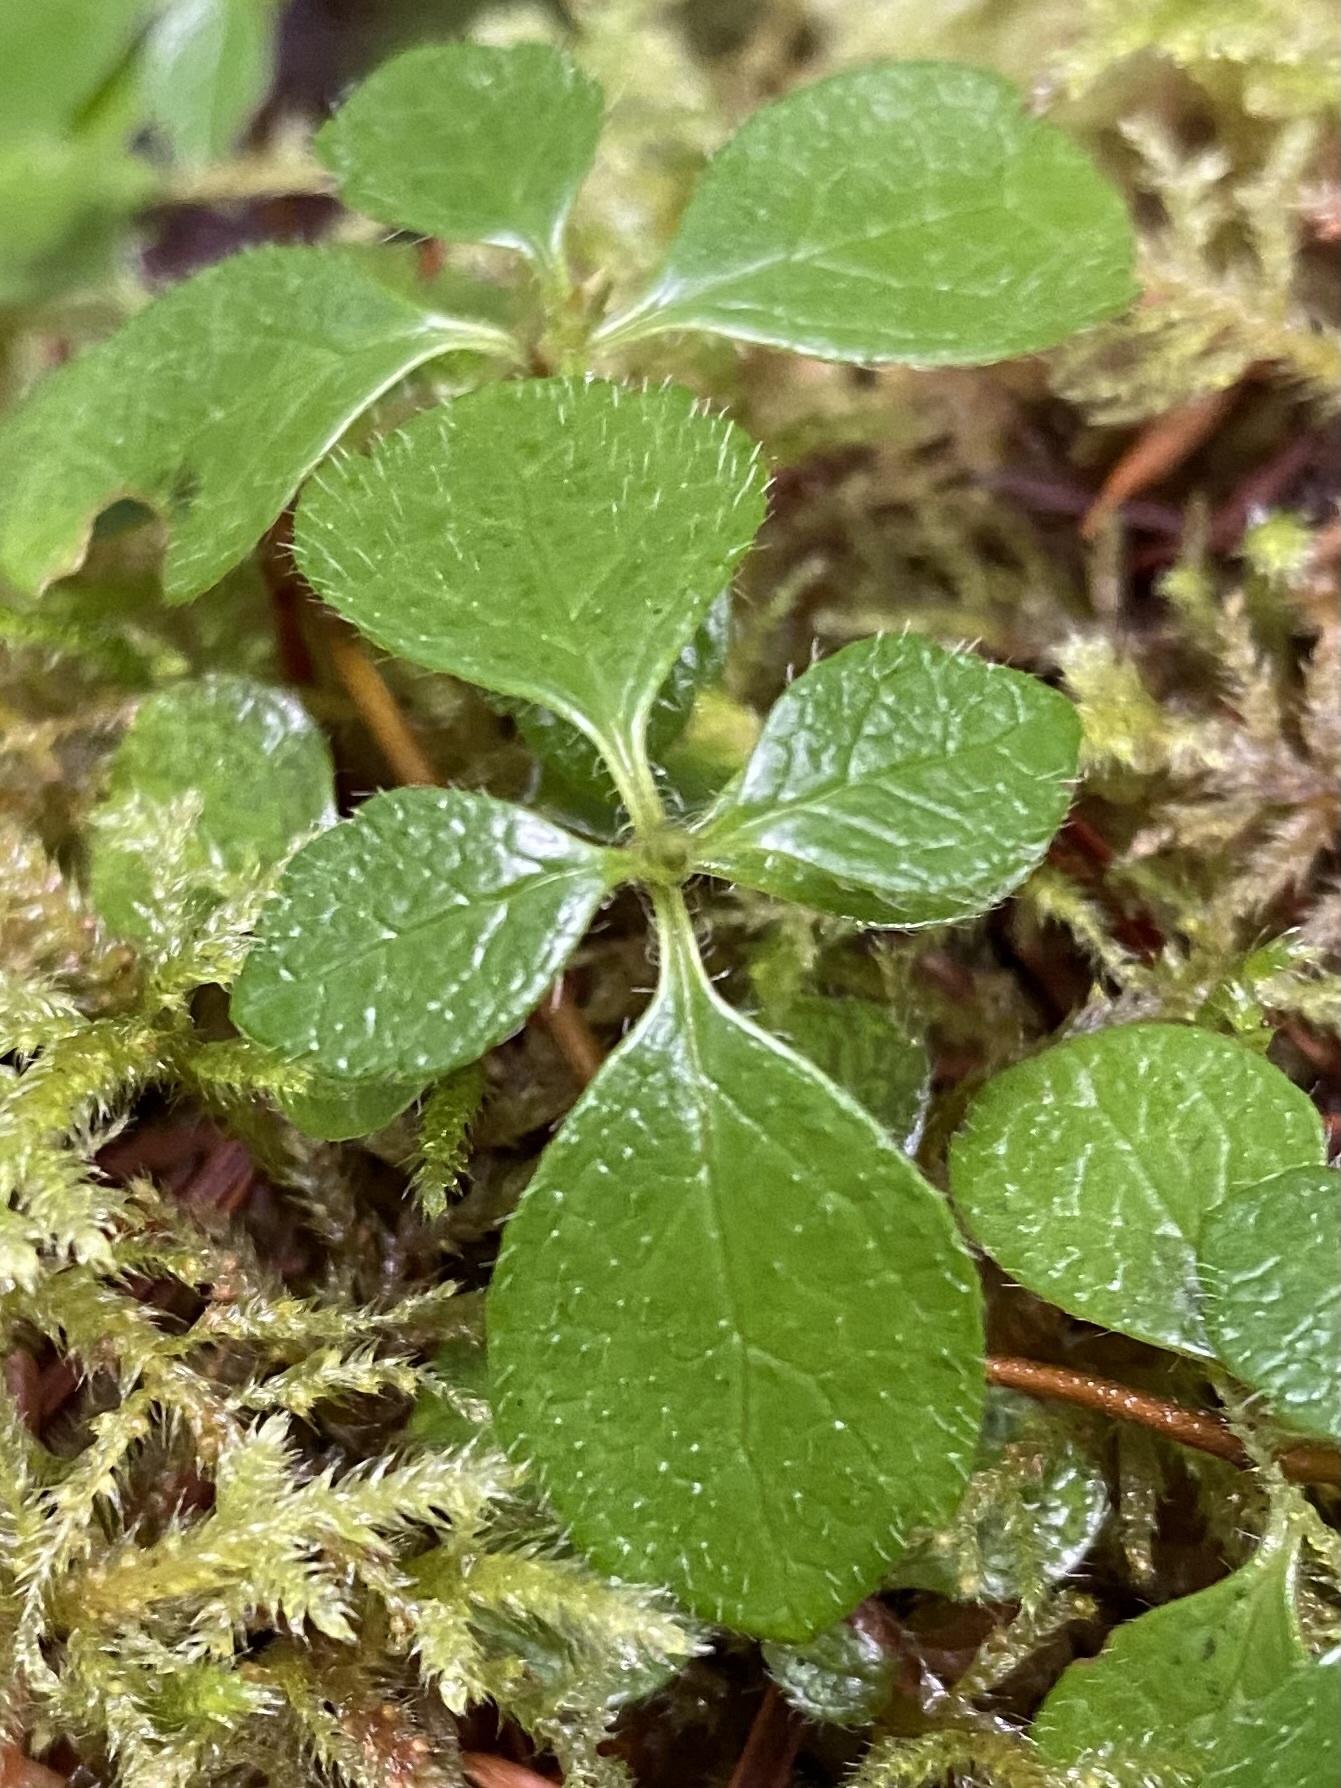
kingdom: Plantae
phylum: Tracheophyta
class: Magnoliopsida
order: Dipsacales
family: Caprifoliaceae
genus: Linnaea
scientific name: Linnaea borealis
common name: Twinflower
